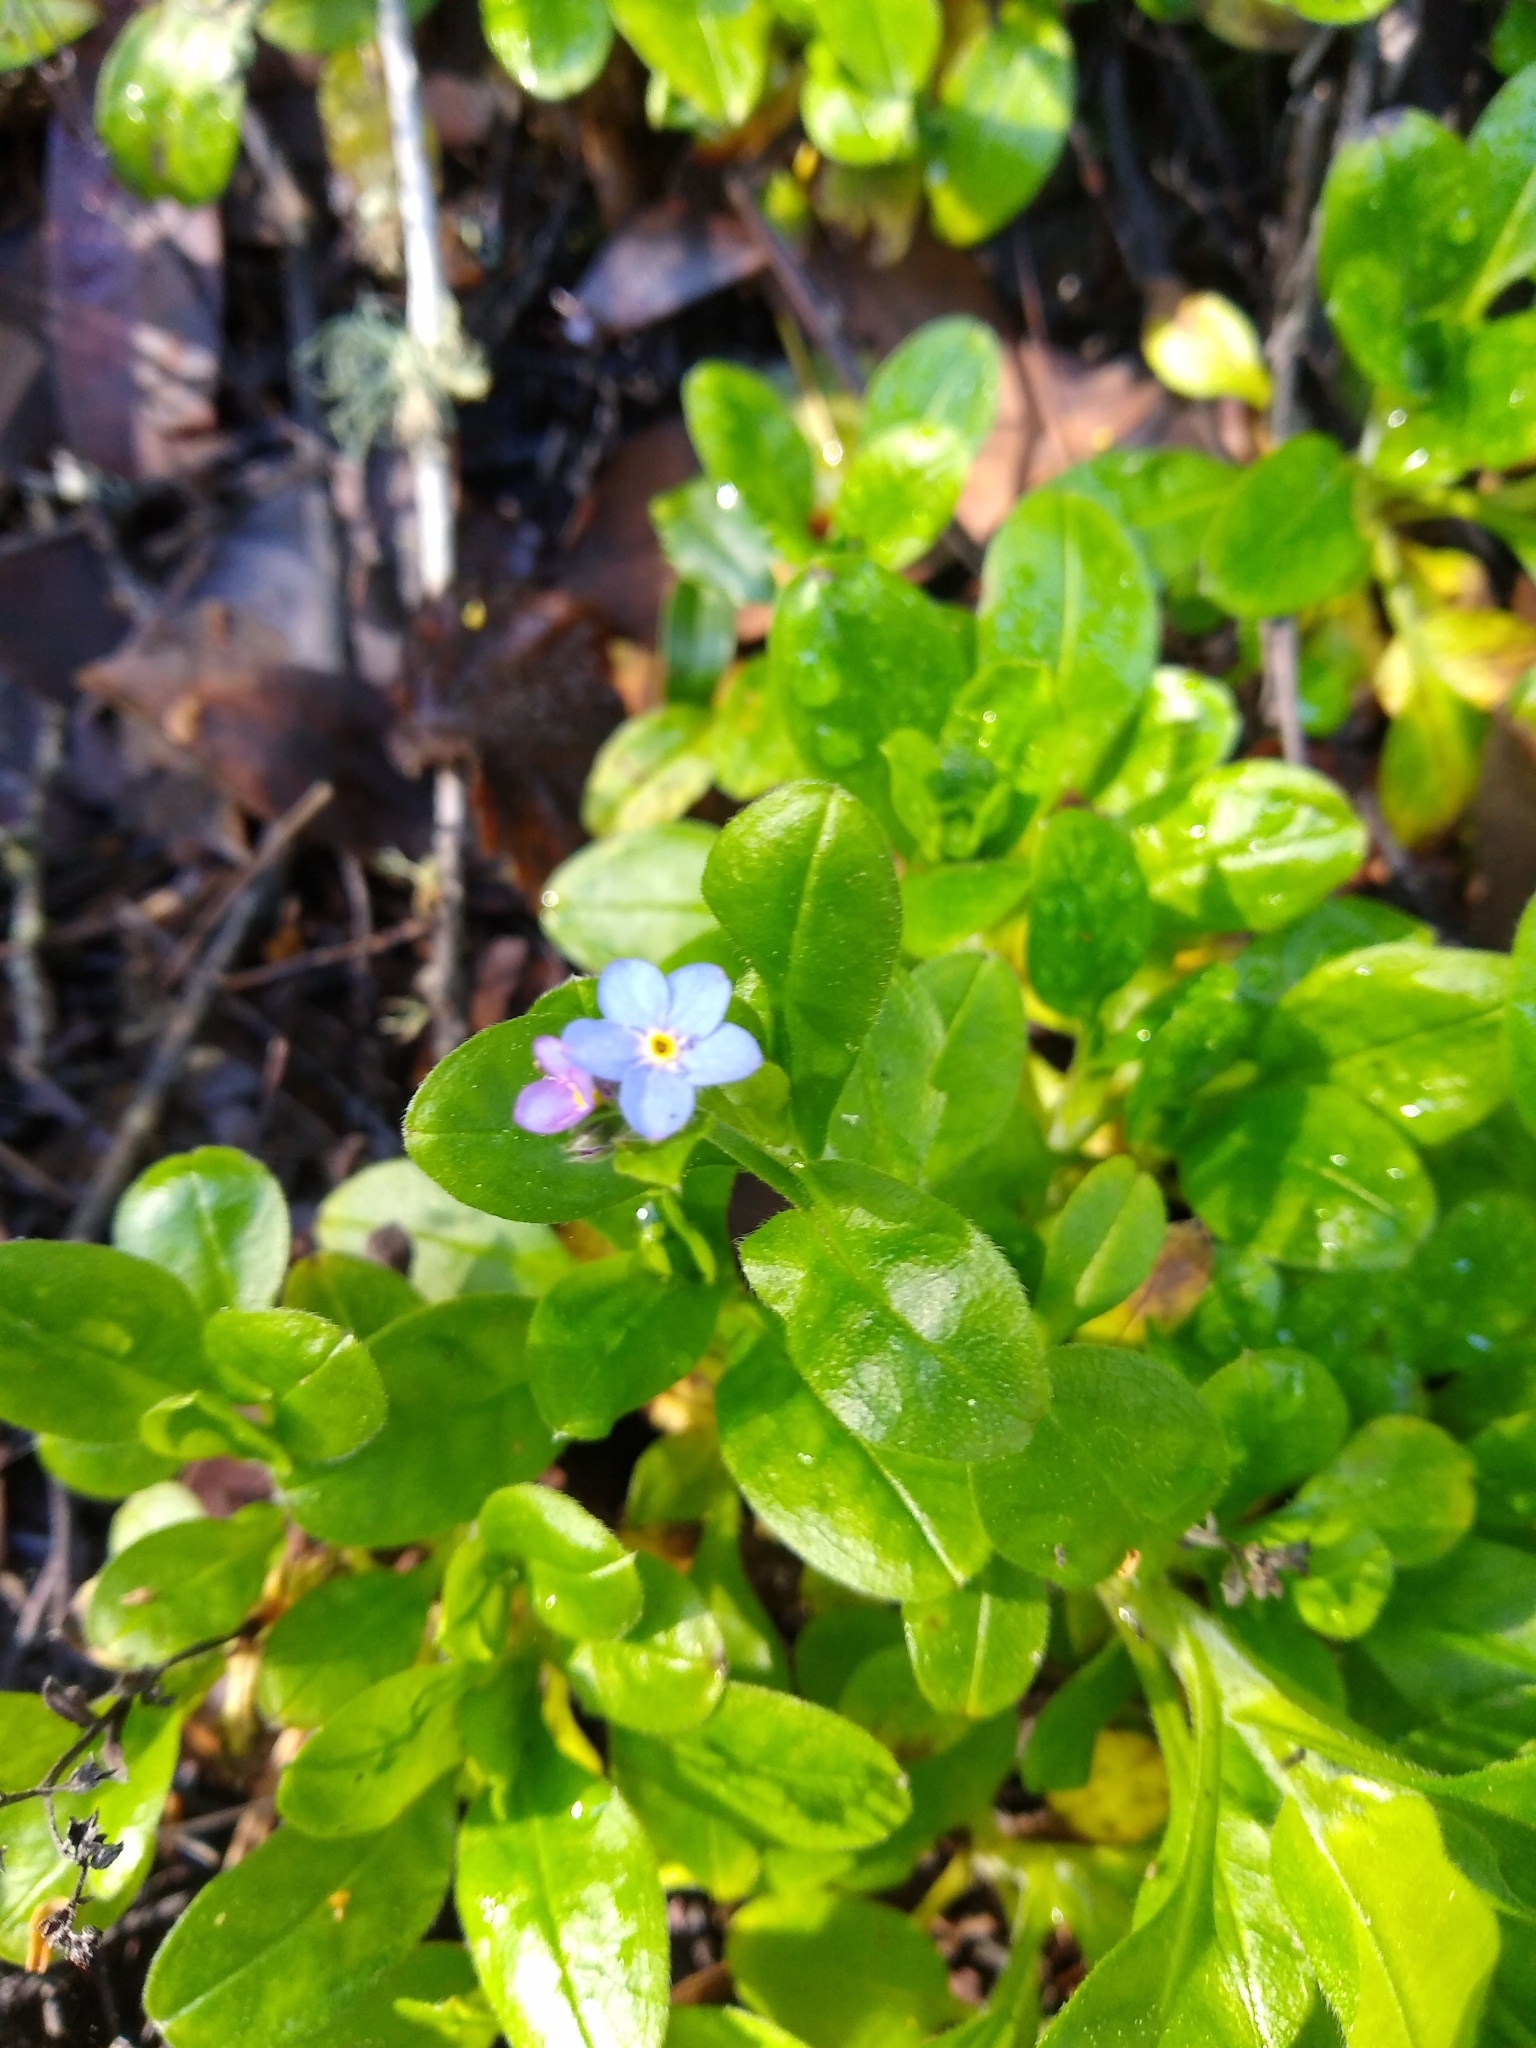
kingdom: Plantae
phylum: Tracheophyta
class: Magnoliopsida
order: Boraginales
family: Boraginaceae
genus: Myosotis
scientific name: Myosotis latifolia
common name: Broadleaf forget-me-not
